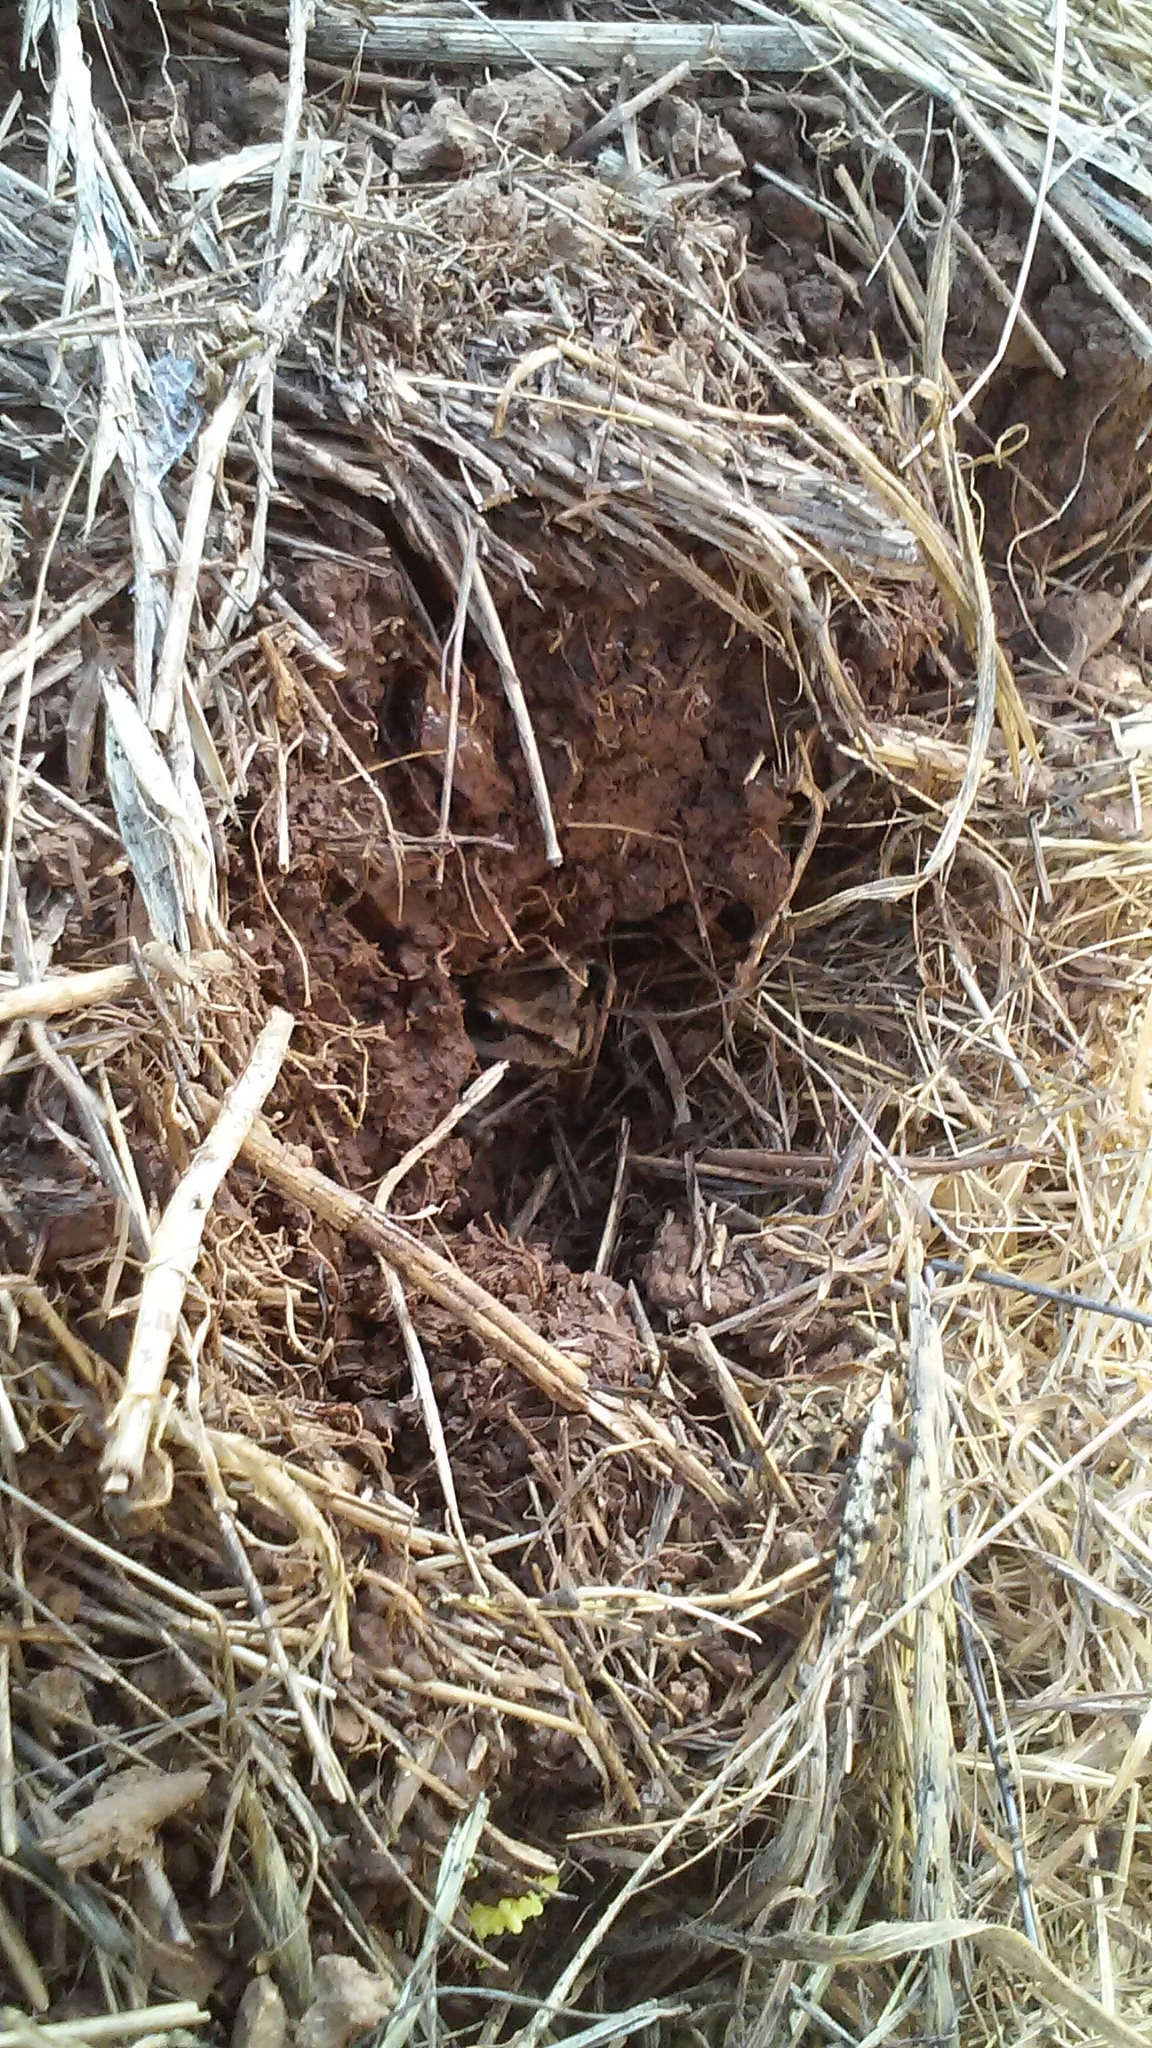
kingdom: Animalia
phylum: Chordata
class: Amphibia
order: Anura
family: Hylidae
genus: Pseudacris
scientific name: Pseudacris regilla
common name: Pacific chorus frog
